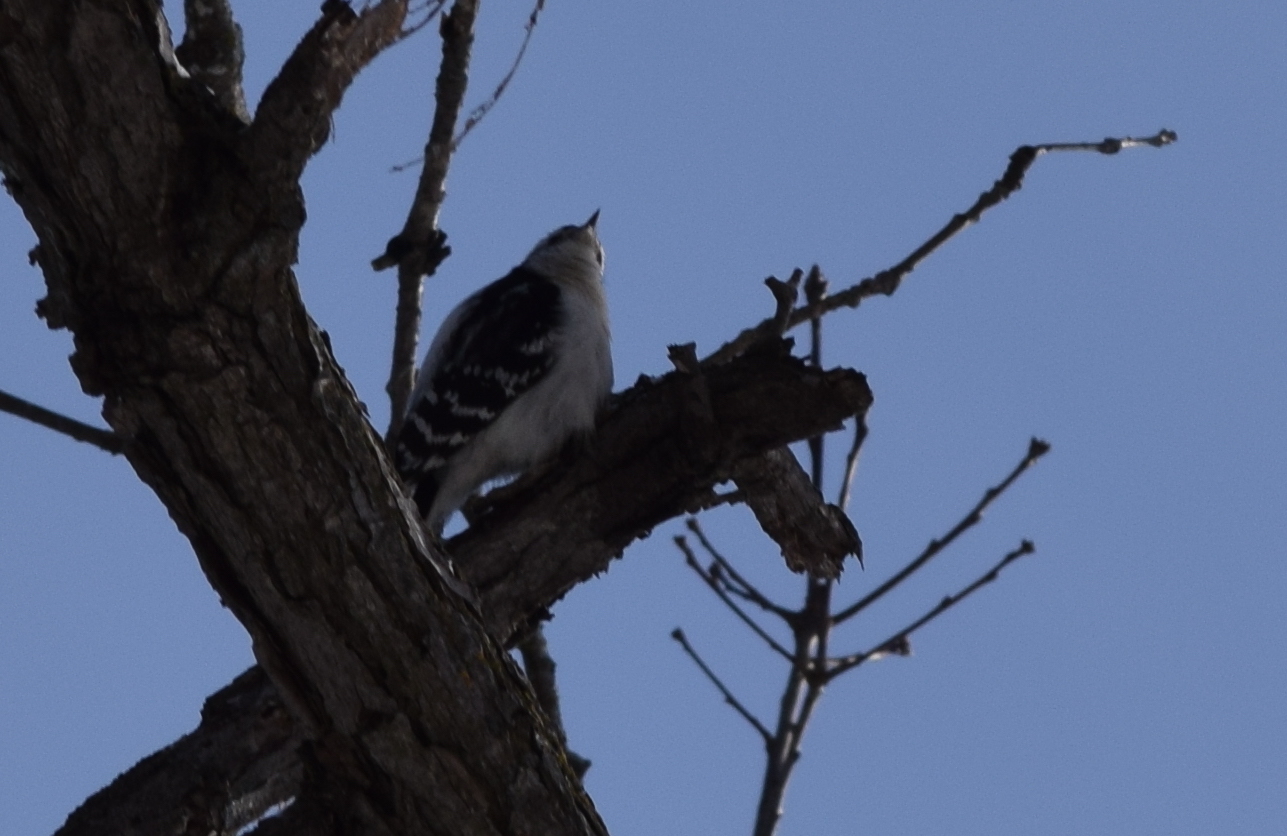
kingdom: Animalia
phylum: Chordata
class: Aves
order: Piciformes
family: Picidae
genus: Dryobates
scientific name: Dryobates pubescens
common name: Downy woodpecker
